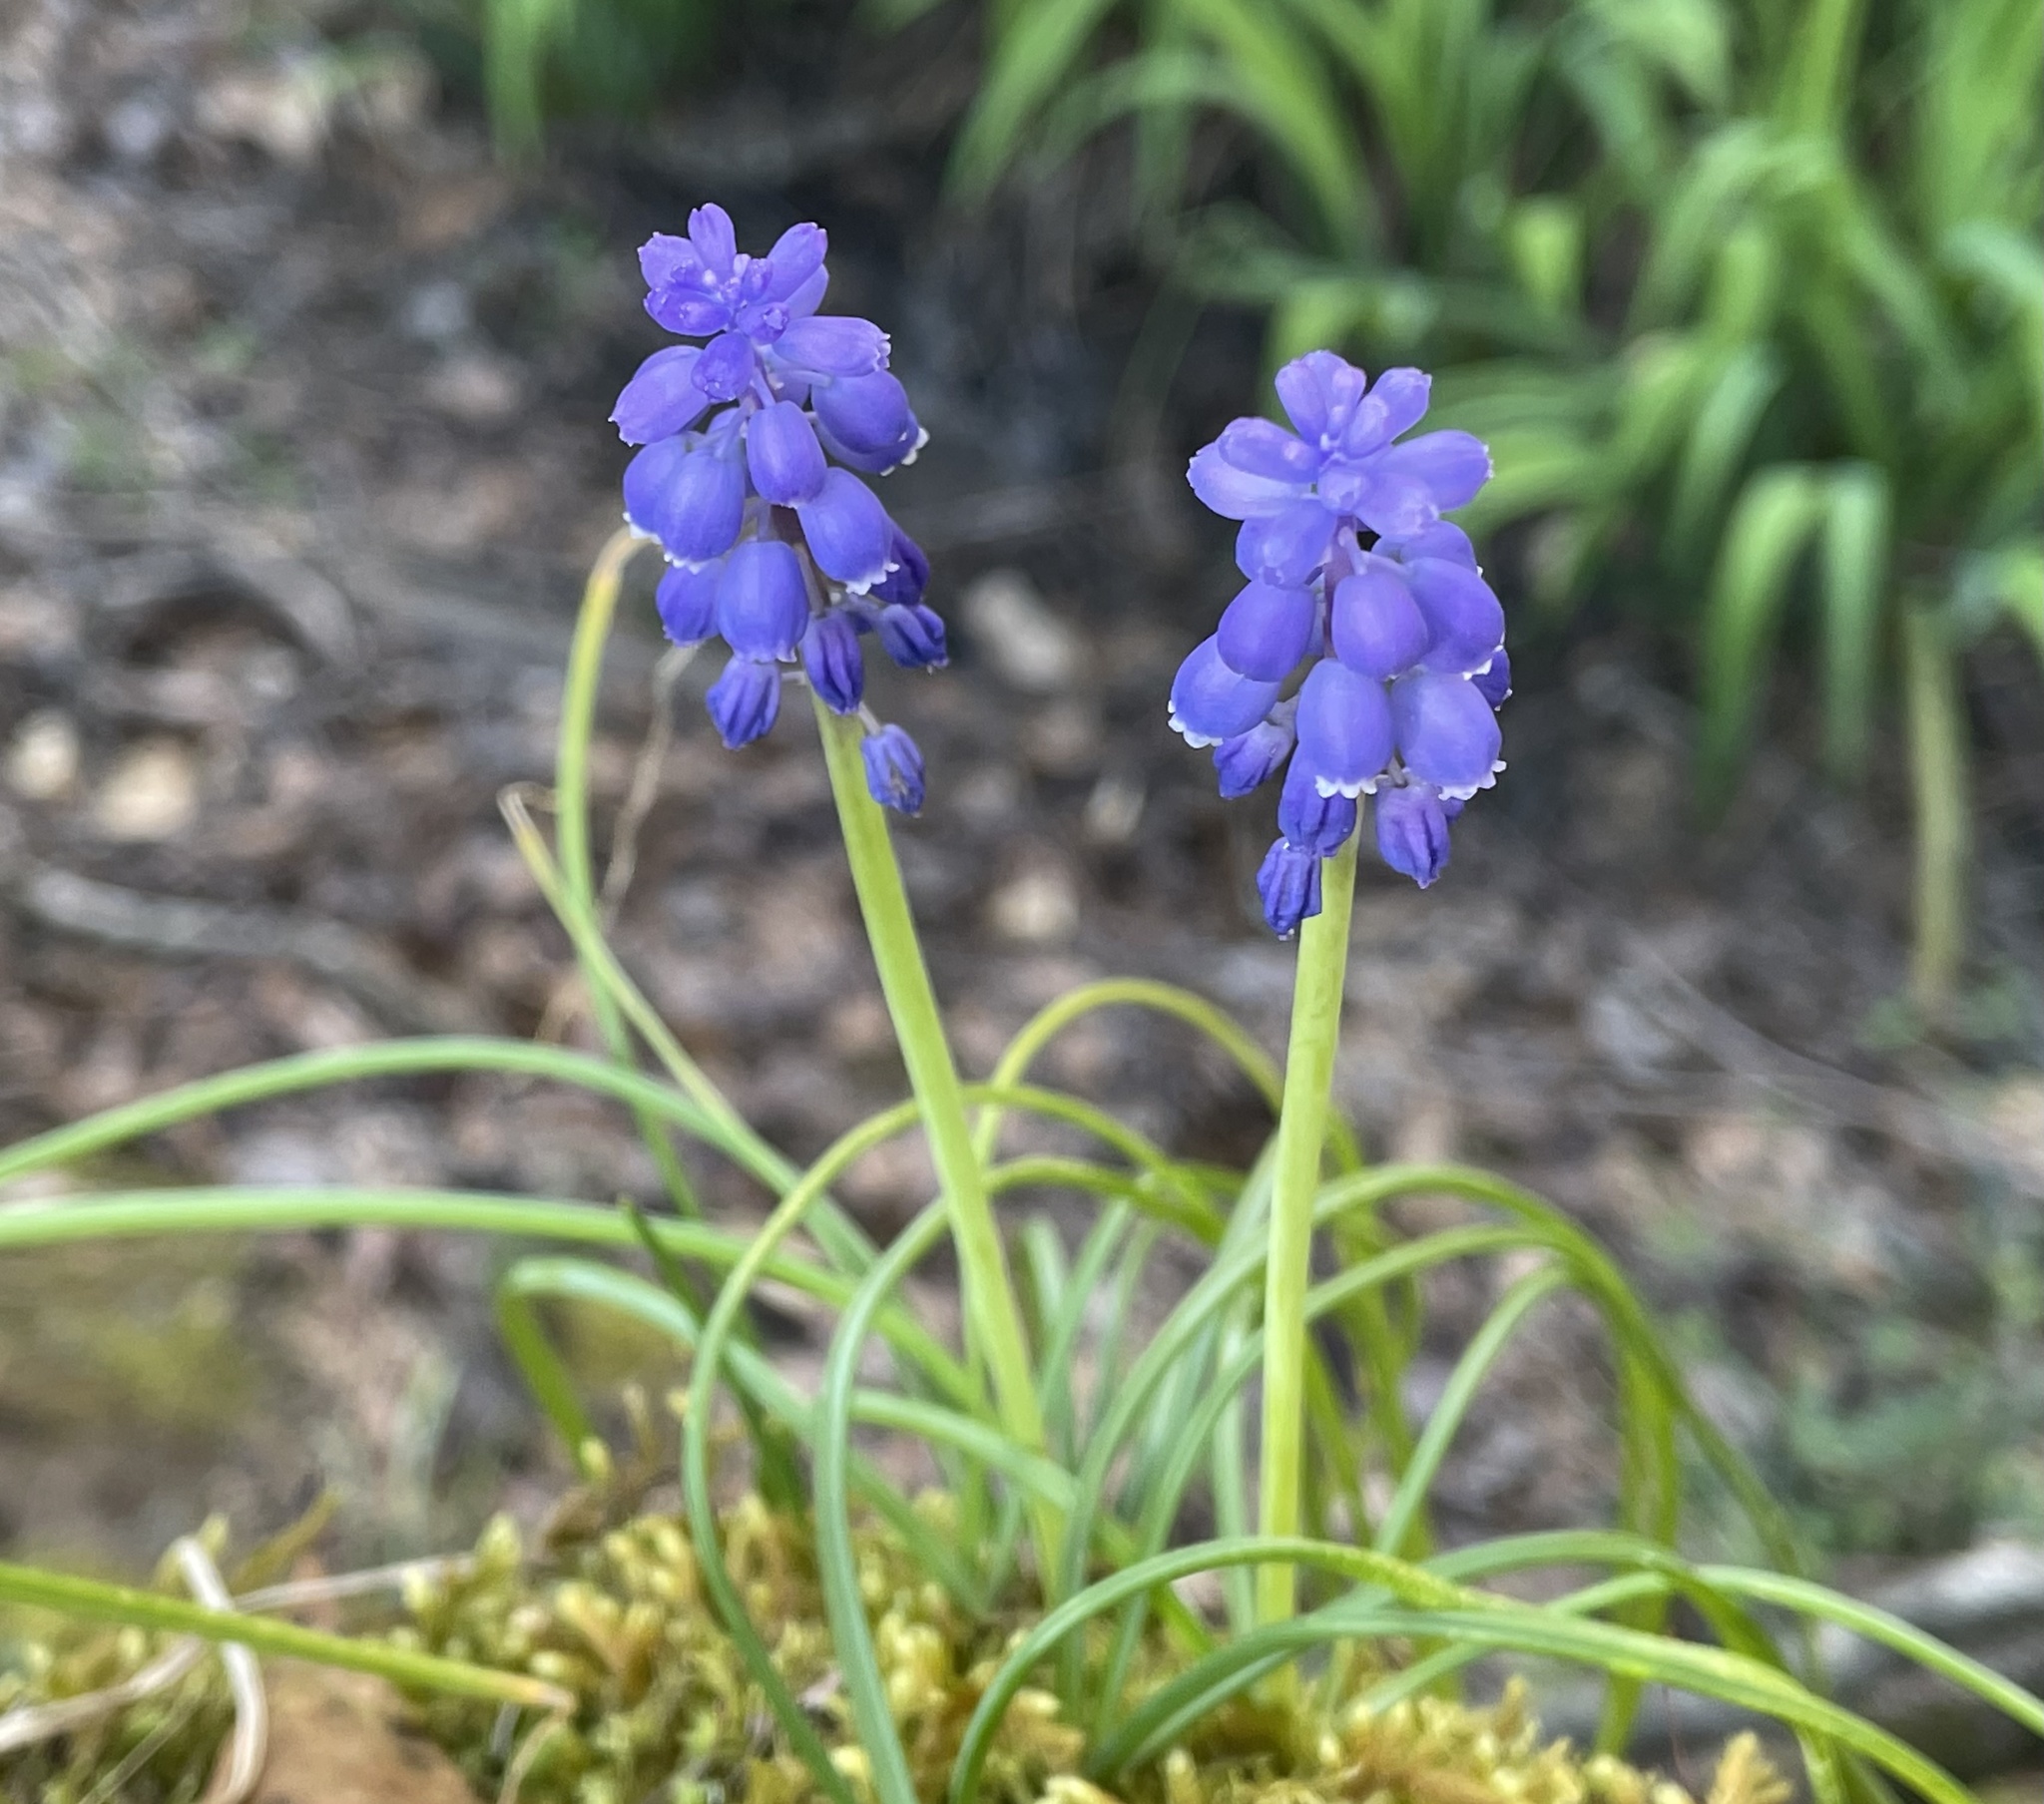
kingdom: Plantae
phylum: Tracheophyta
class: Liliopsida
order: Asparagales
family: Asparagaceae
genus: Muscari
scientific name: Muscari neglectum
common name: Grape-hyacinth
